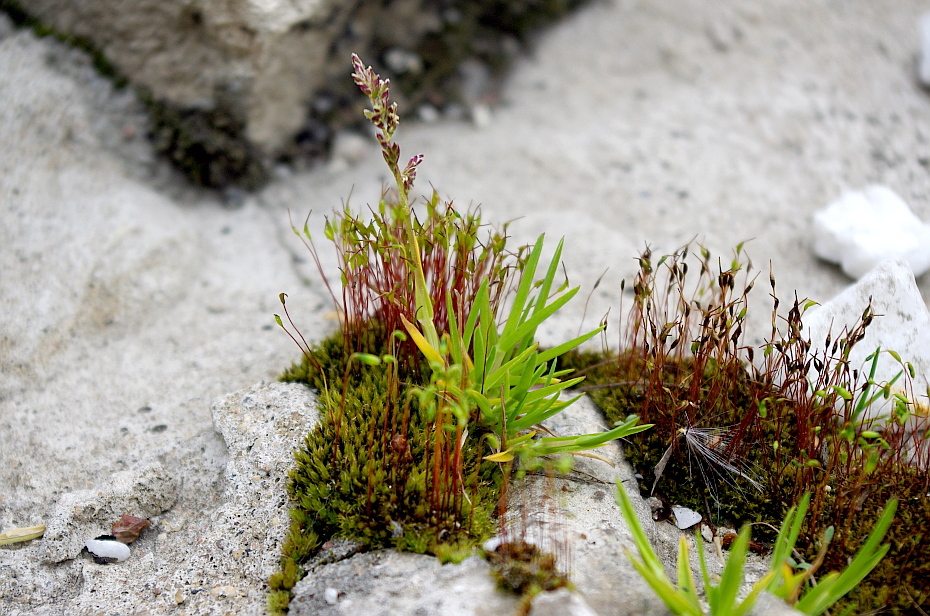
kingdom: Plantae
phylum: Tracheophyta
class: Liliopsida
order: Poales
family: Poaceae
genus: Poa
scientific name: Poa annua
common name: Annual bluegrass
